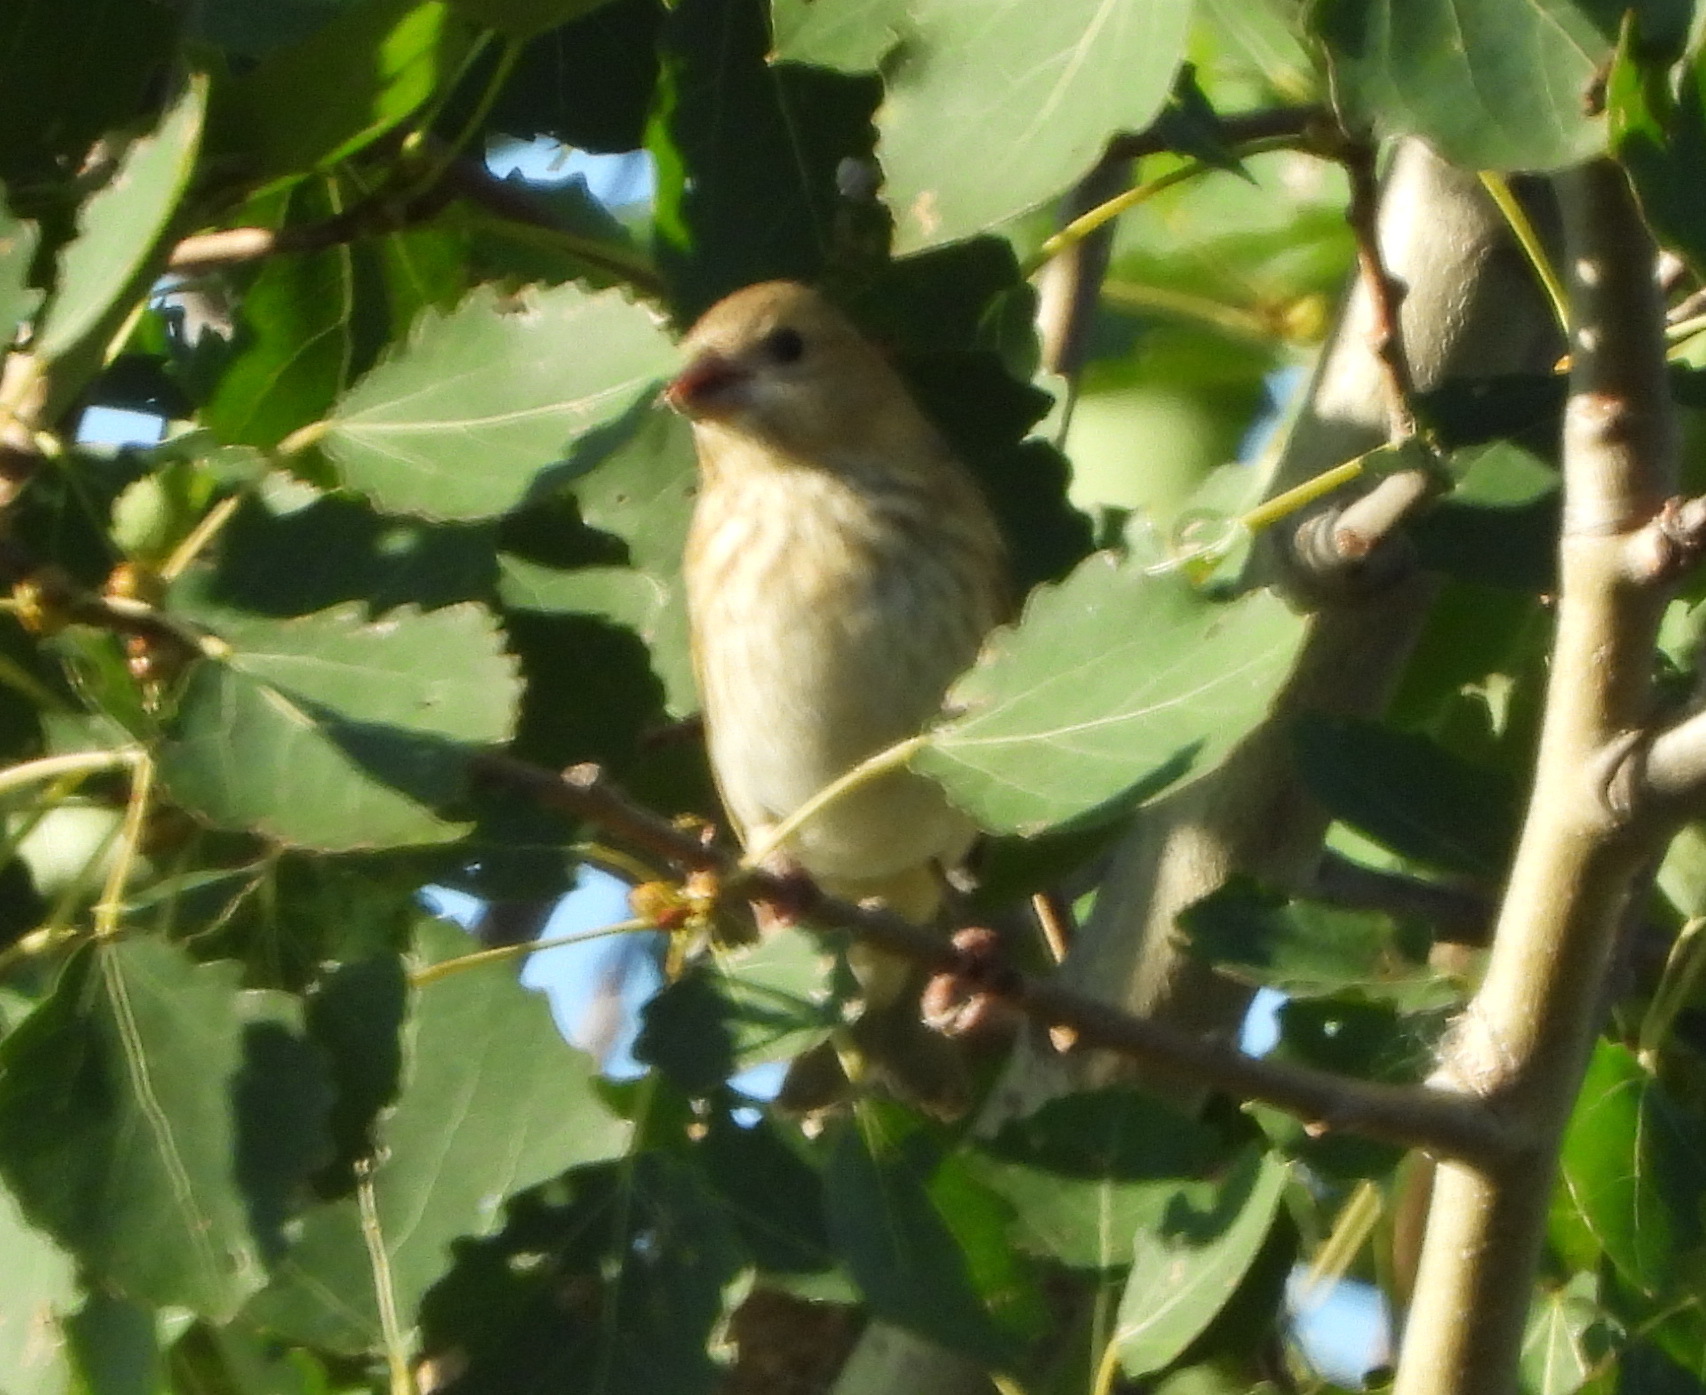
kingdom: Animalia
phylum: Chordata
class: Aves
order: Passeriformes
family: Fringillidae
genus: Carpodacus
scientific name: Carpodacus erythrinus
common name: Common rosefinch
